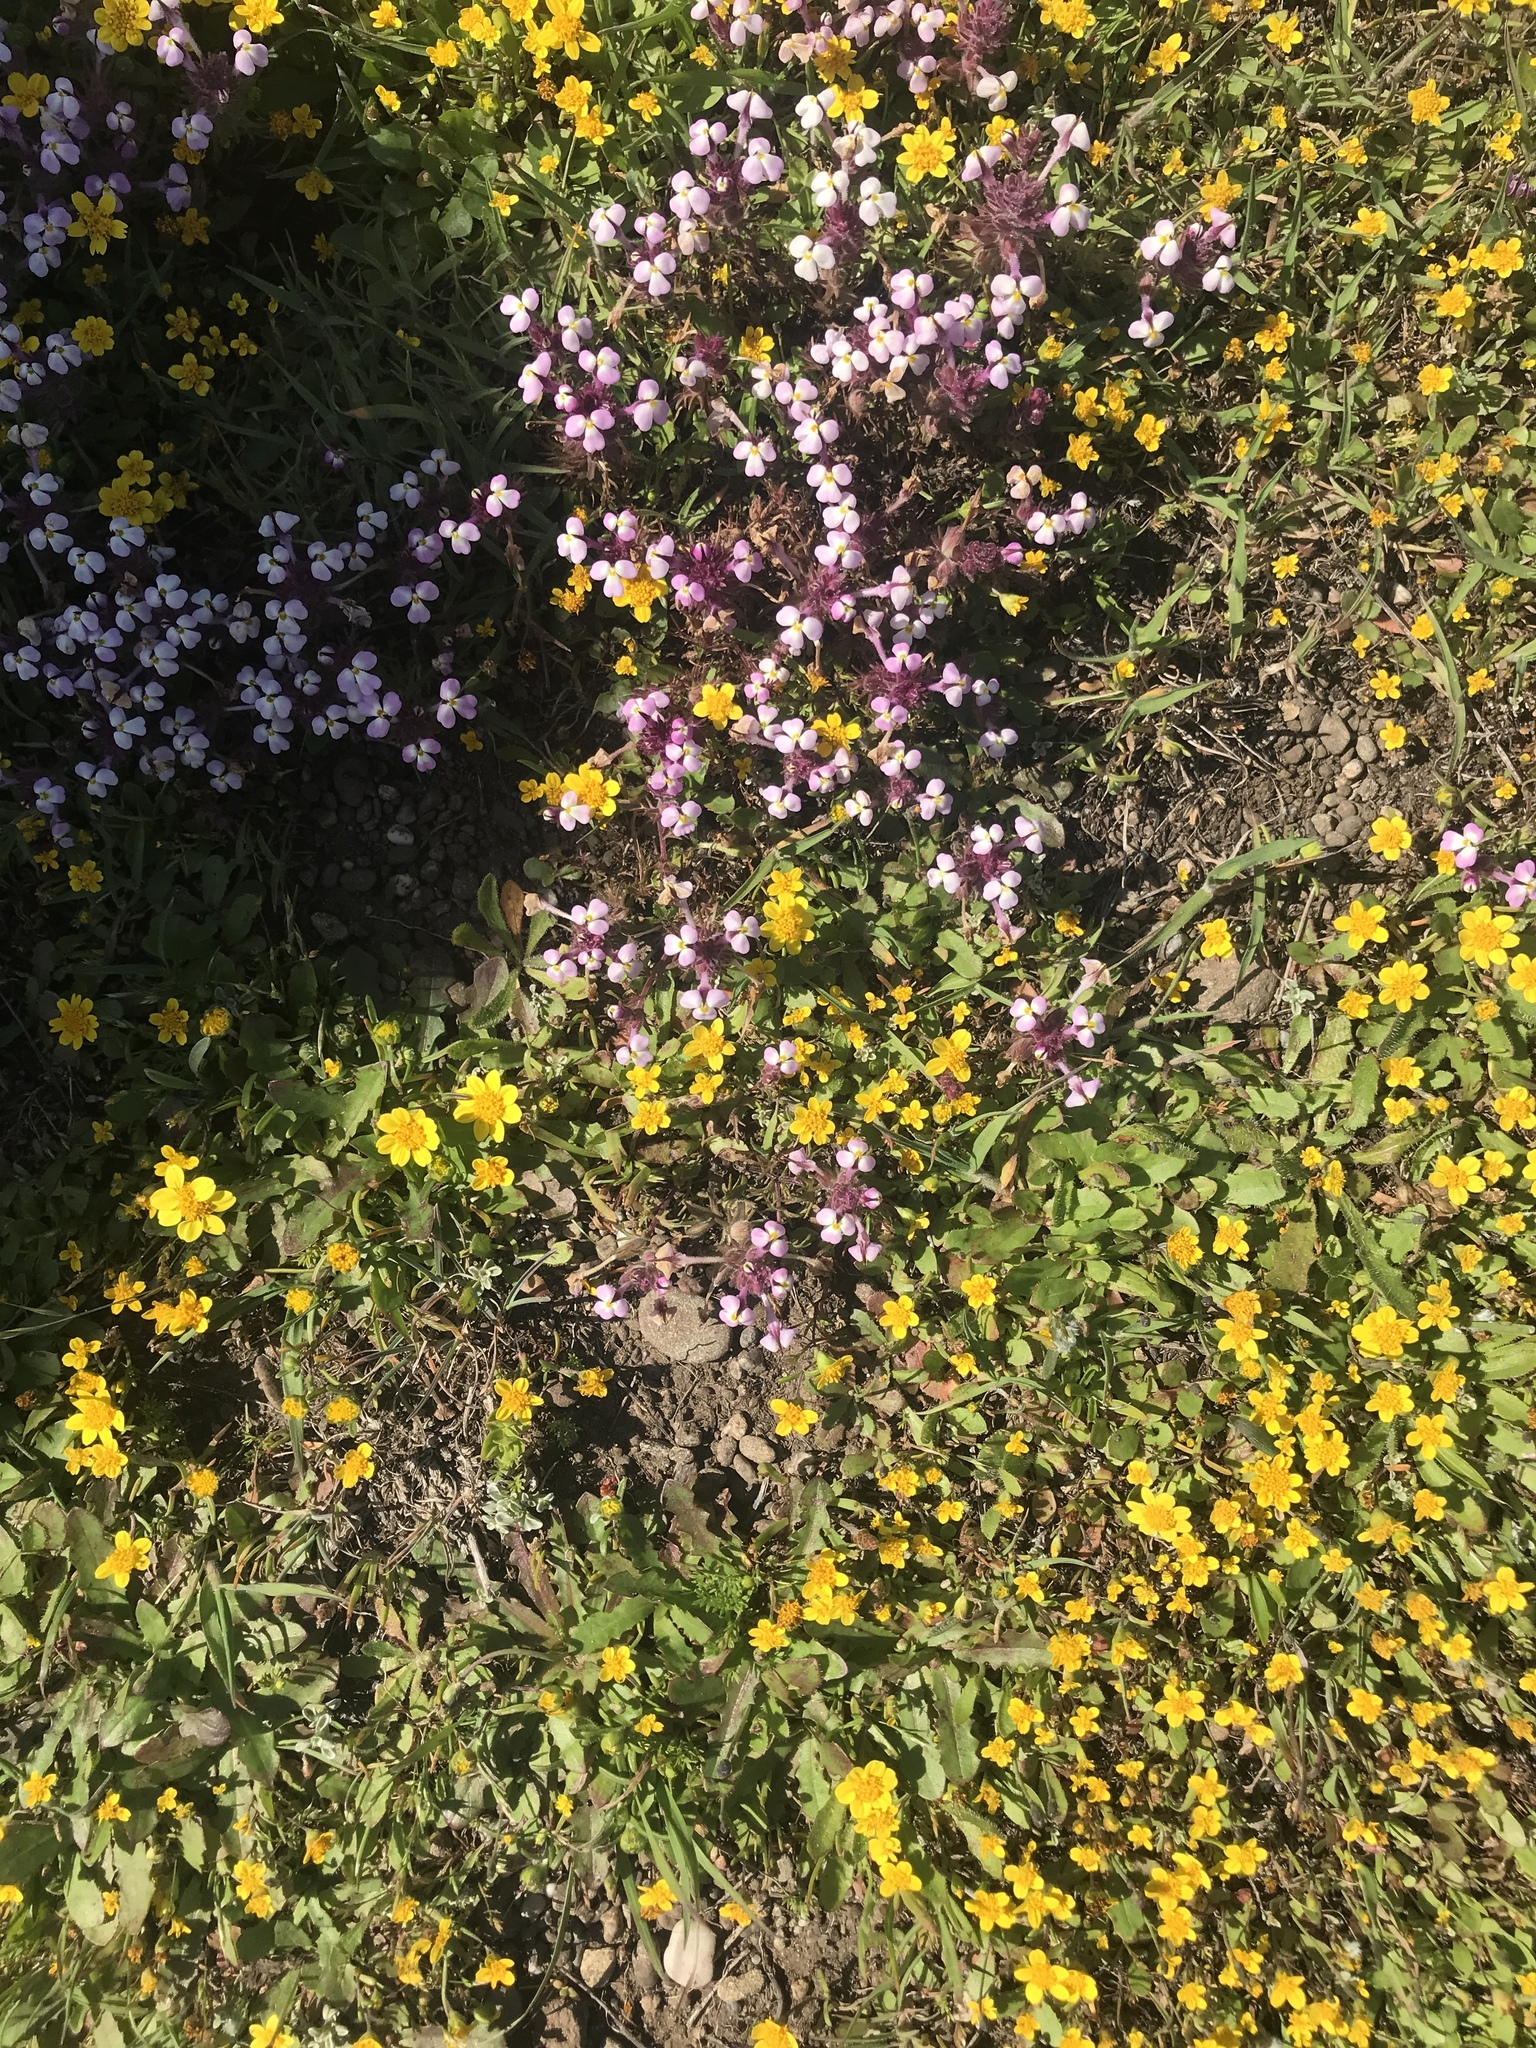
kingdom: Plantae
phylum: Tracheophyta
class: Magnoliopsida
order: Asterales
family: Asteraceae
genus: Lasthenia
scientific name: Lasthenia californica
